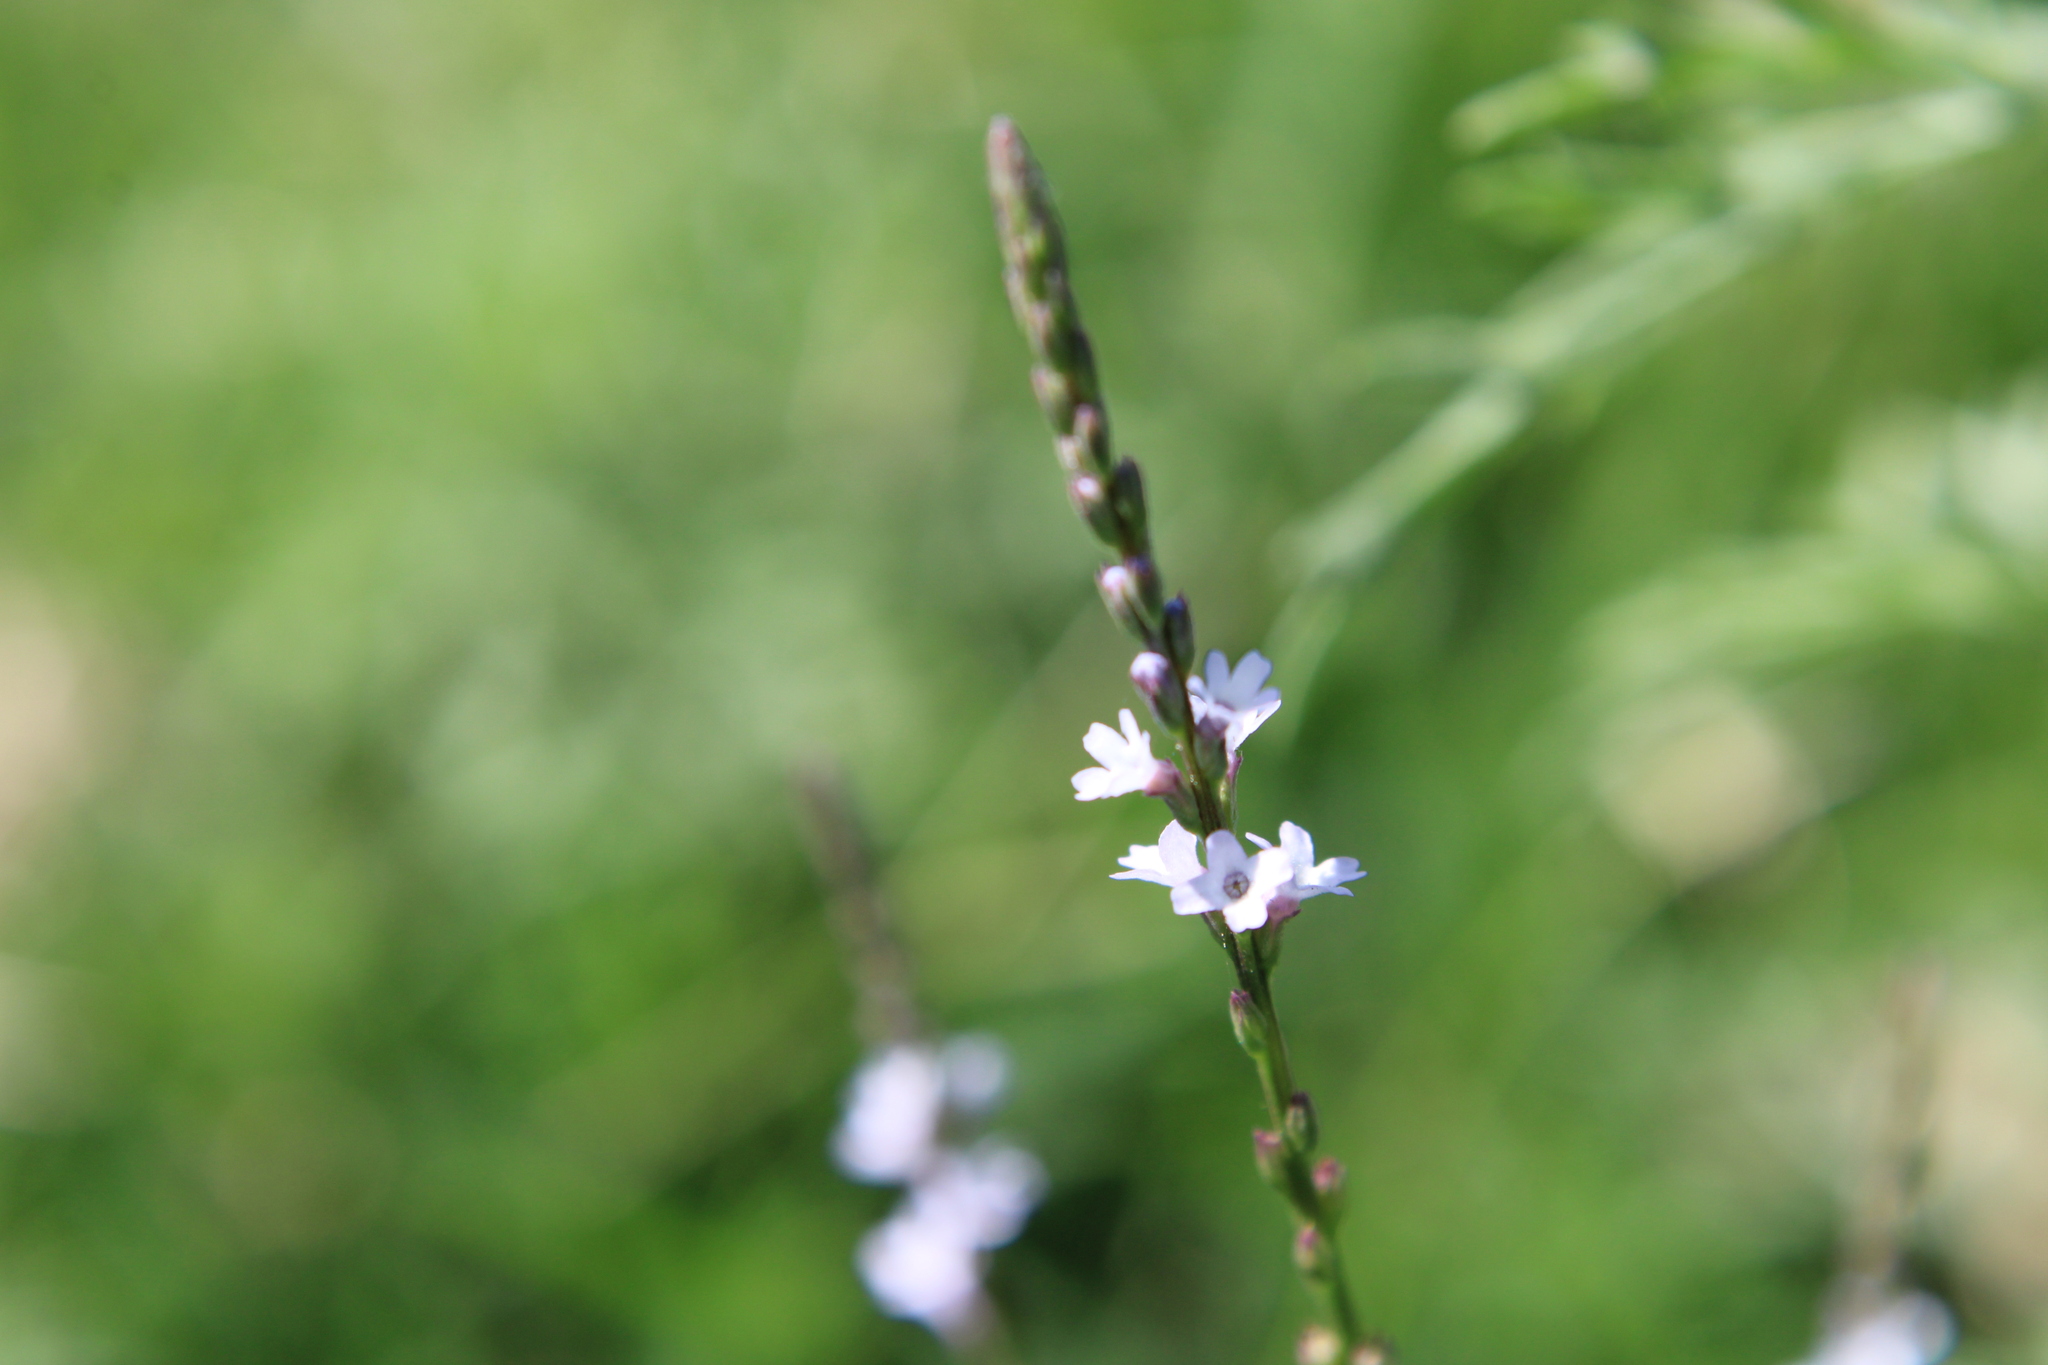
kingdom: Plantae
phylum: Tracheophyta
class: Magnoliopsida
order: Lamiales
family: Verbenaceae
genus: Verbena
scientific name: Verbena gracilescens
